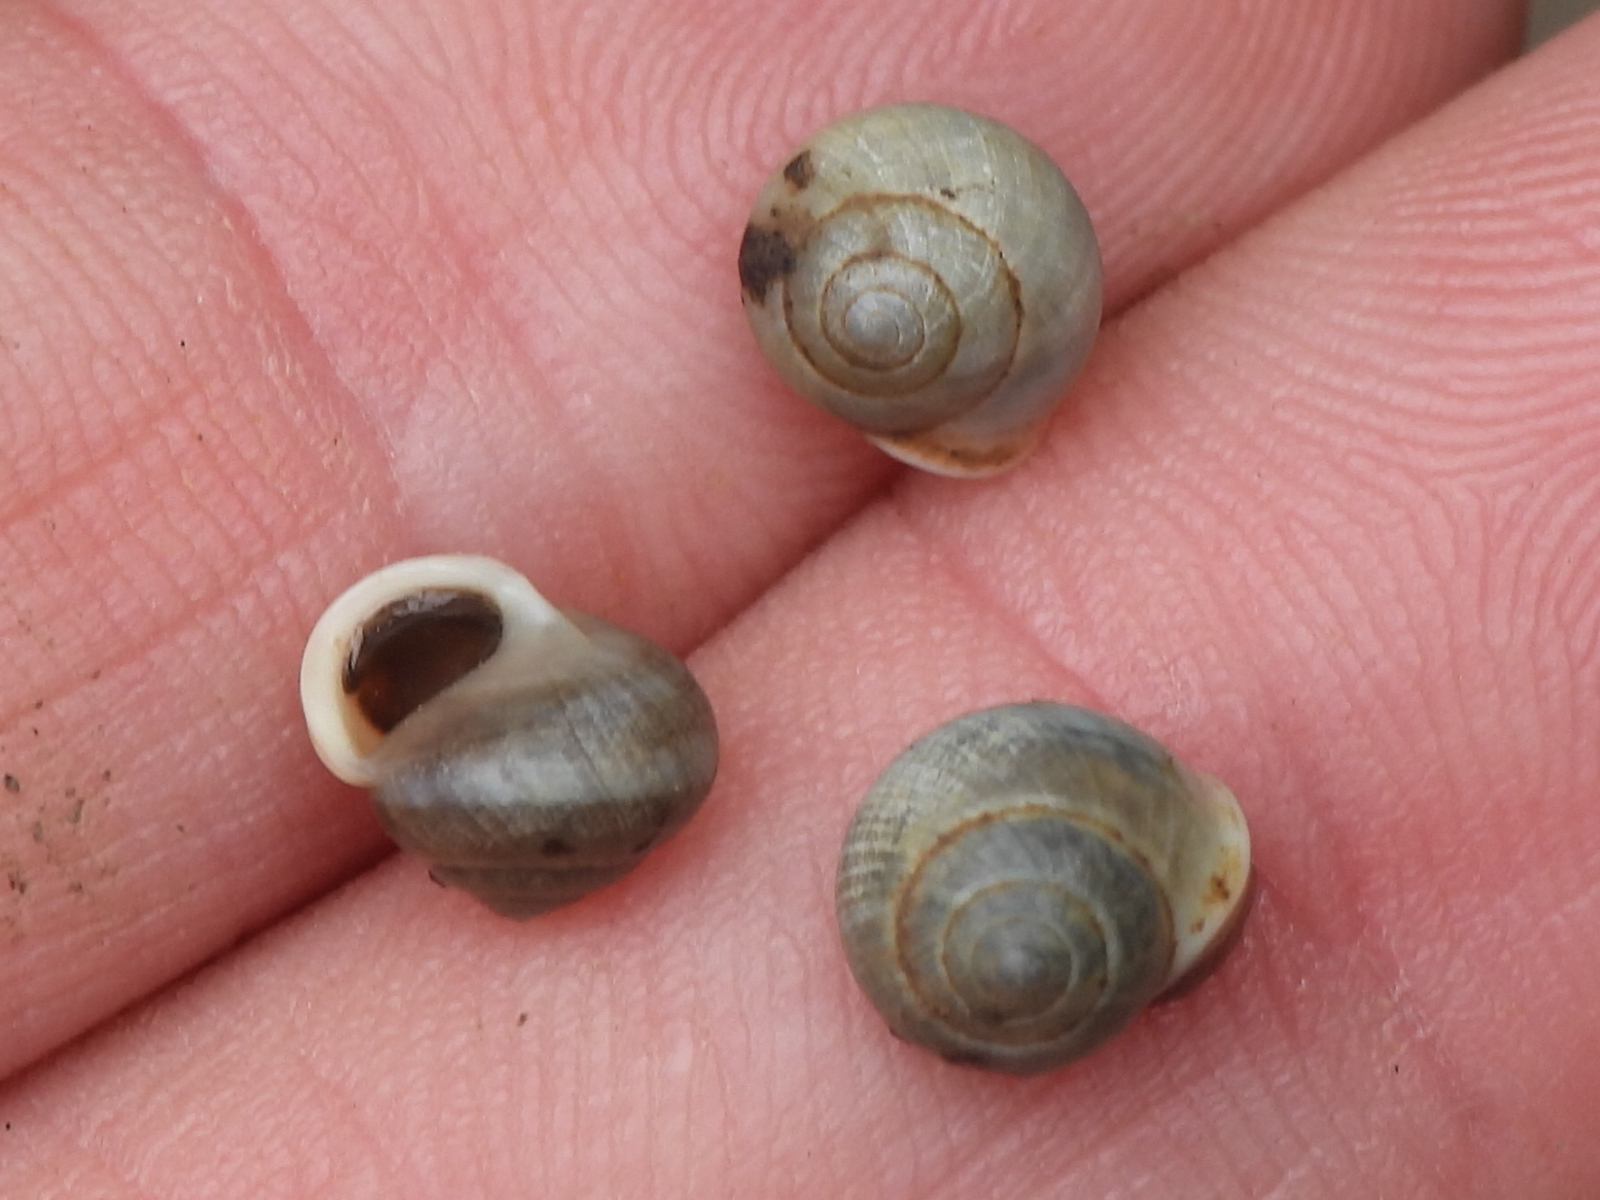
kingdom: Animalia
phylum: Mollusca
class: Gastropoda
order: Cycloneritida
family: Helicinidae
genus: Helicina
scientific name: Helicina orbiculata
